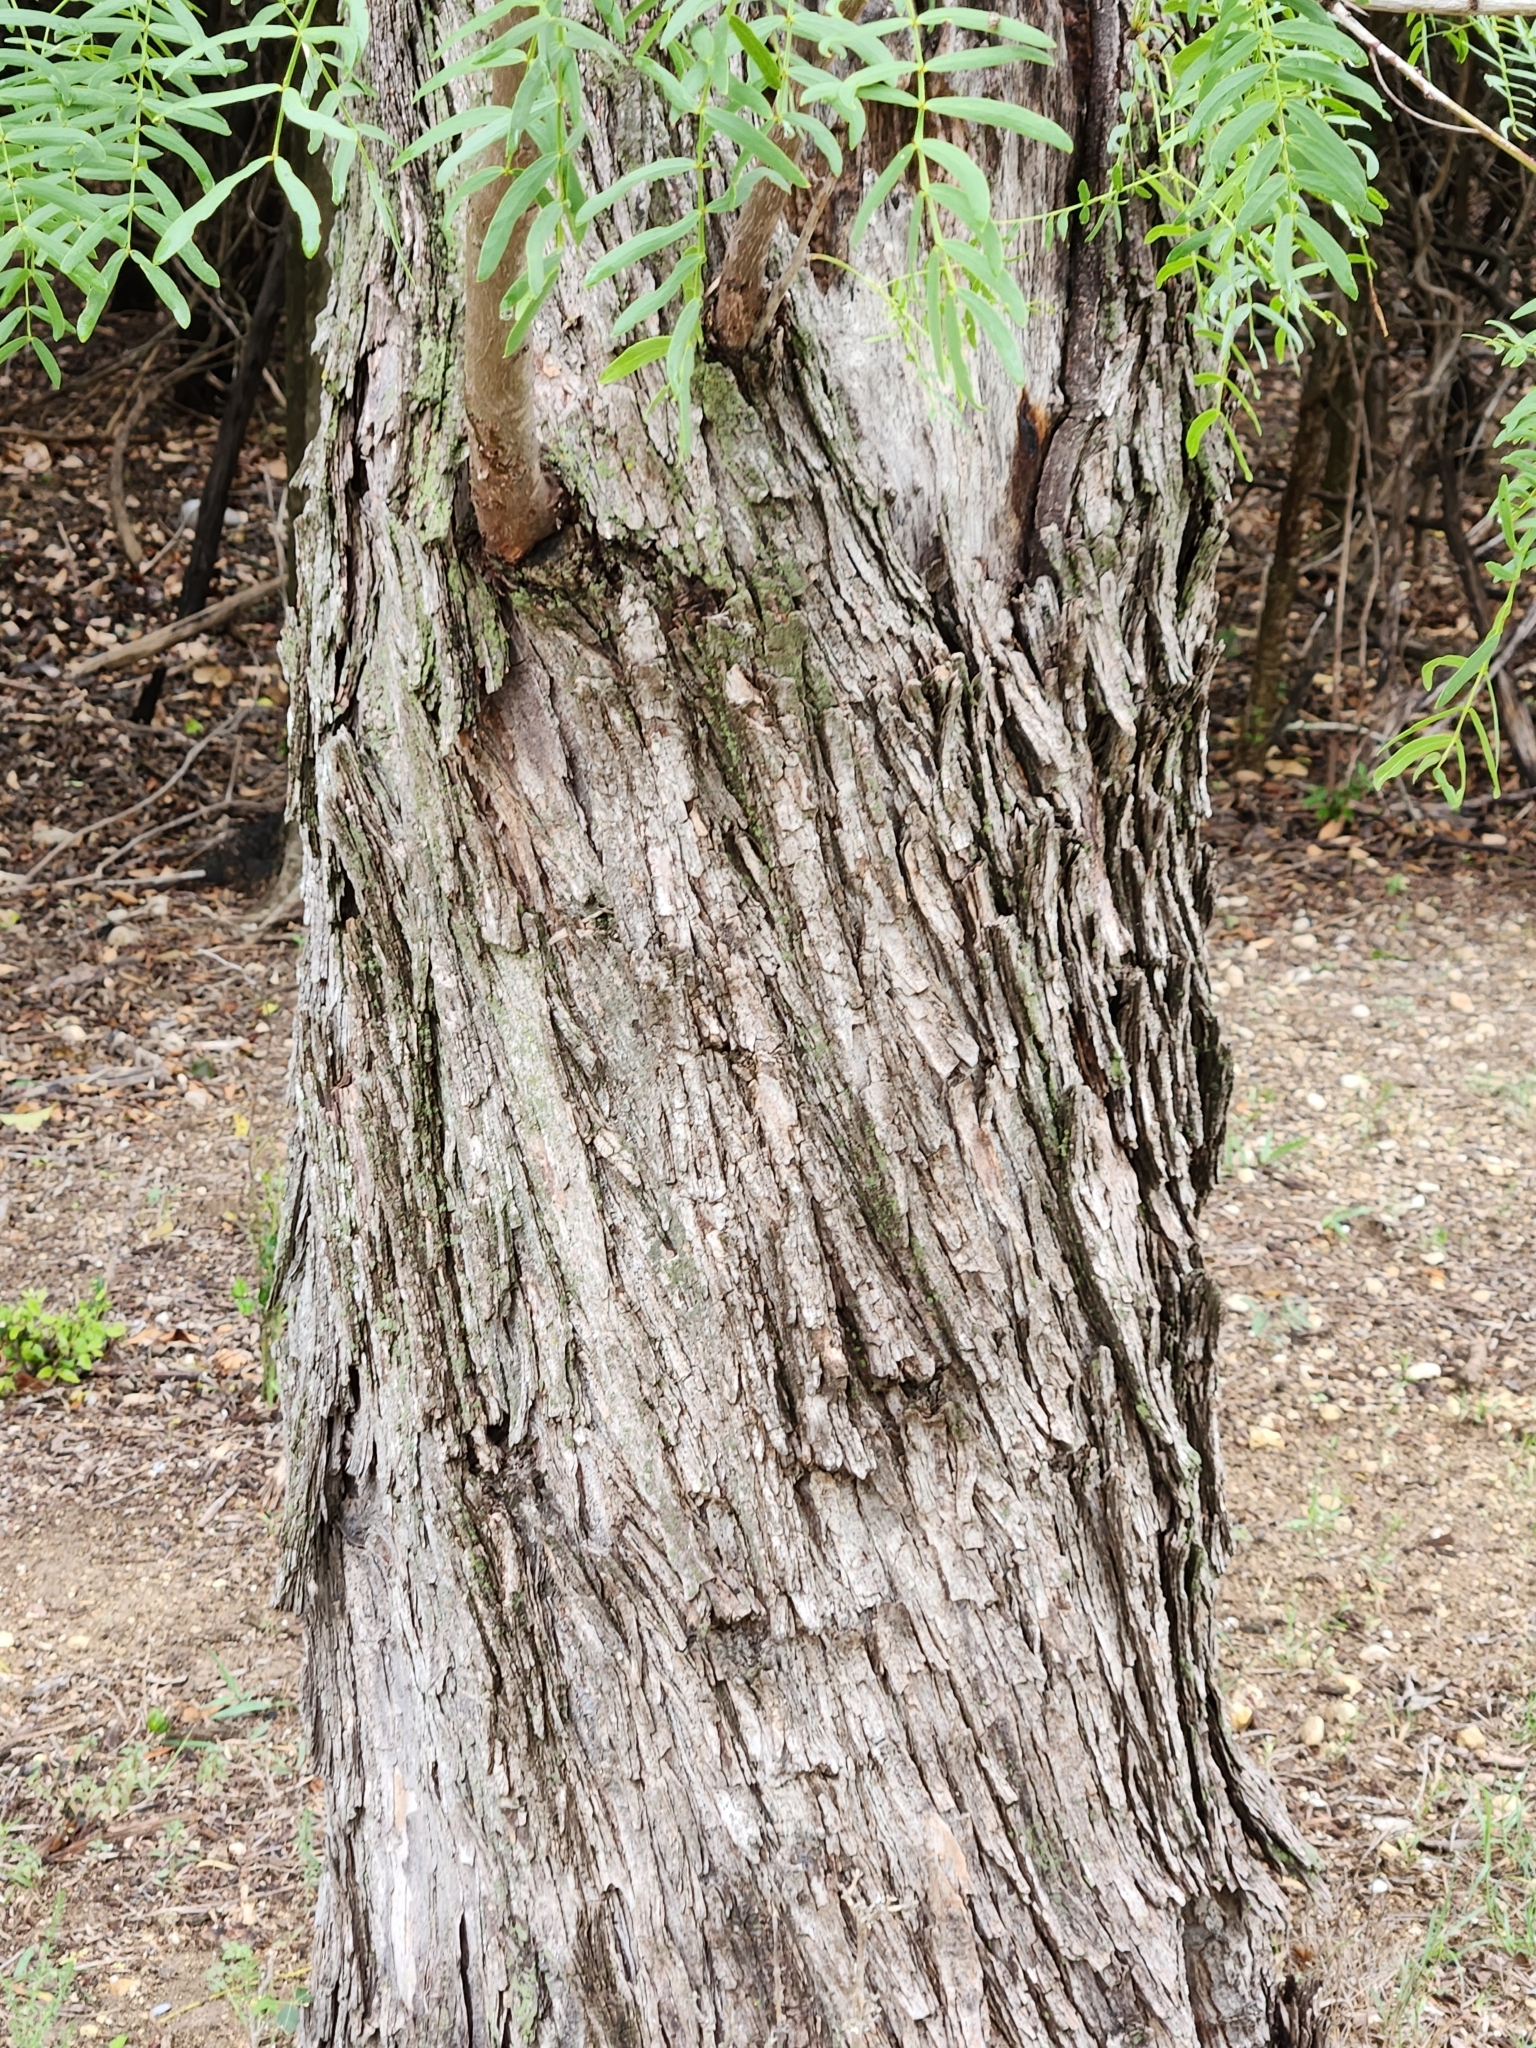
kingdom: Plantae
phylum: Tracheophyta
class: Magnoliopsida
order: Fabales
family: Fabaceae
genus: Prosopis
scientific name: Prosopis glandulosa
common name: Honey mesquite
